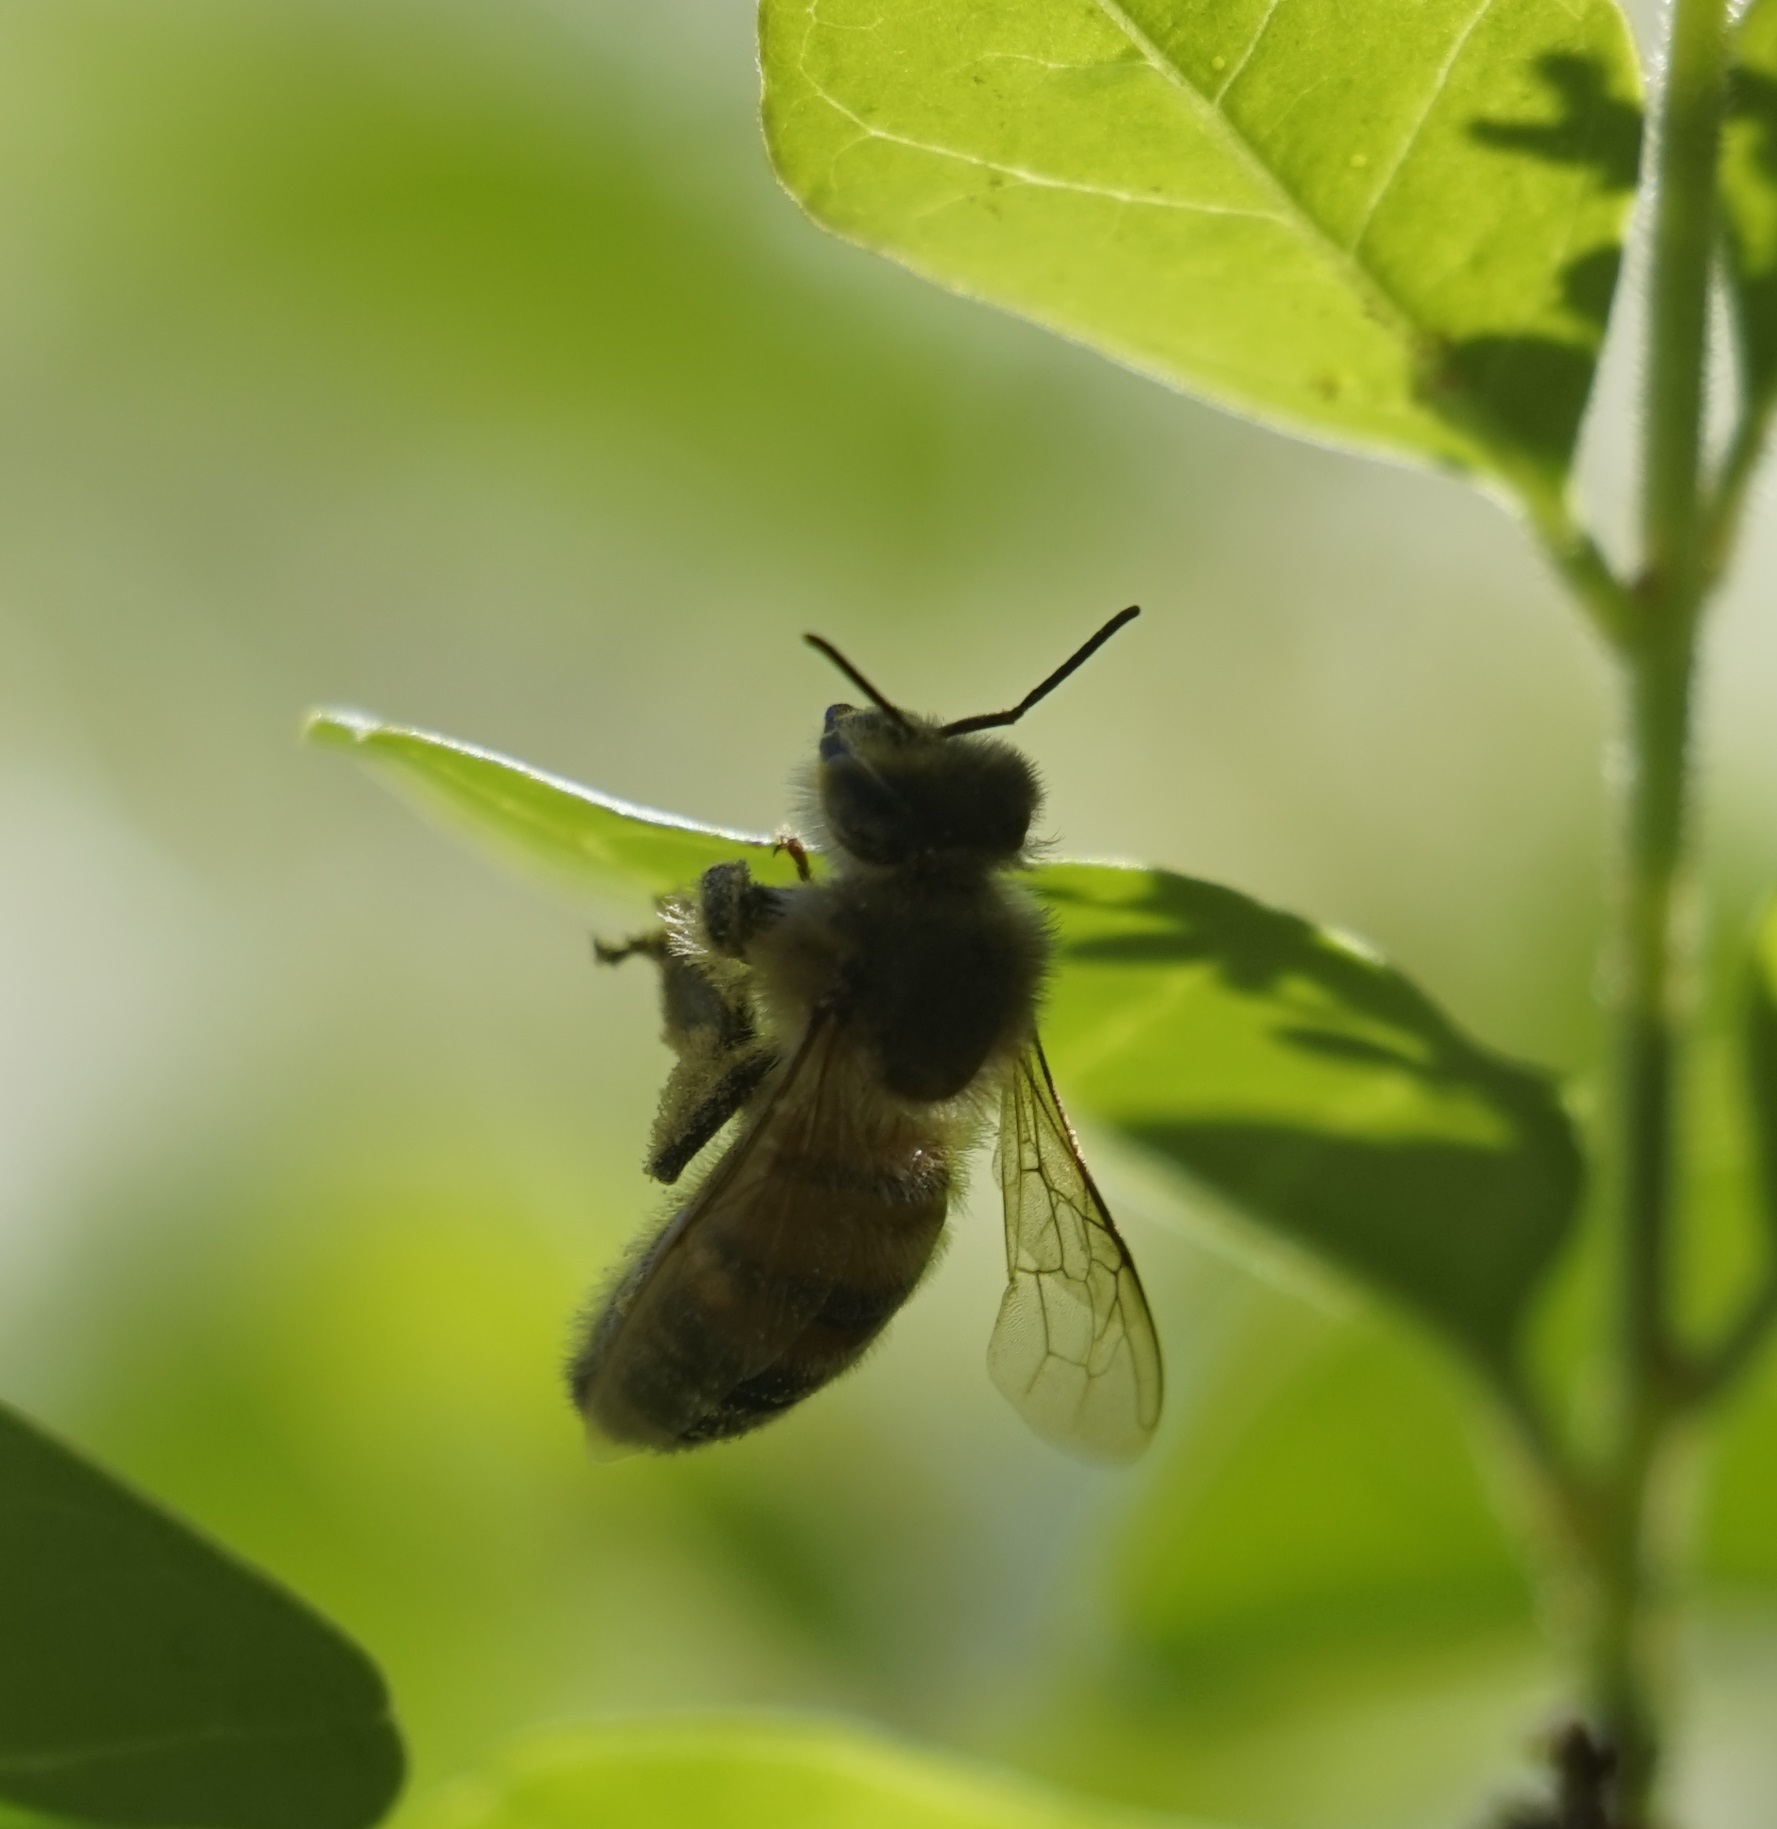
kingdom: Animalia
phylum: Arthropoda
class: Insecta
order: Hymenoptera
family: Apidae
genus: Apis
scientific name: Apis mellifera
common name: Honey bee
